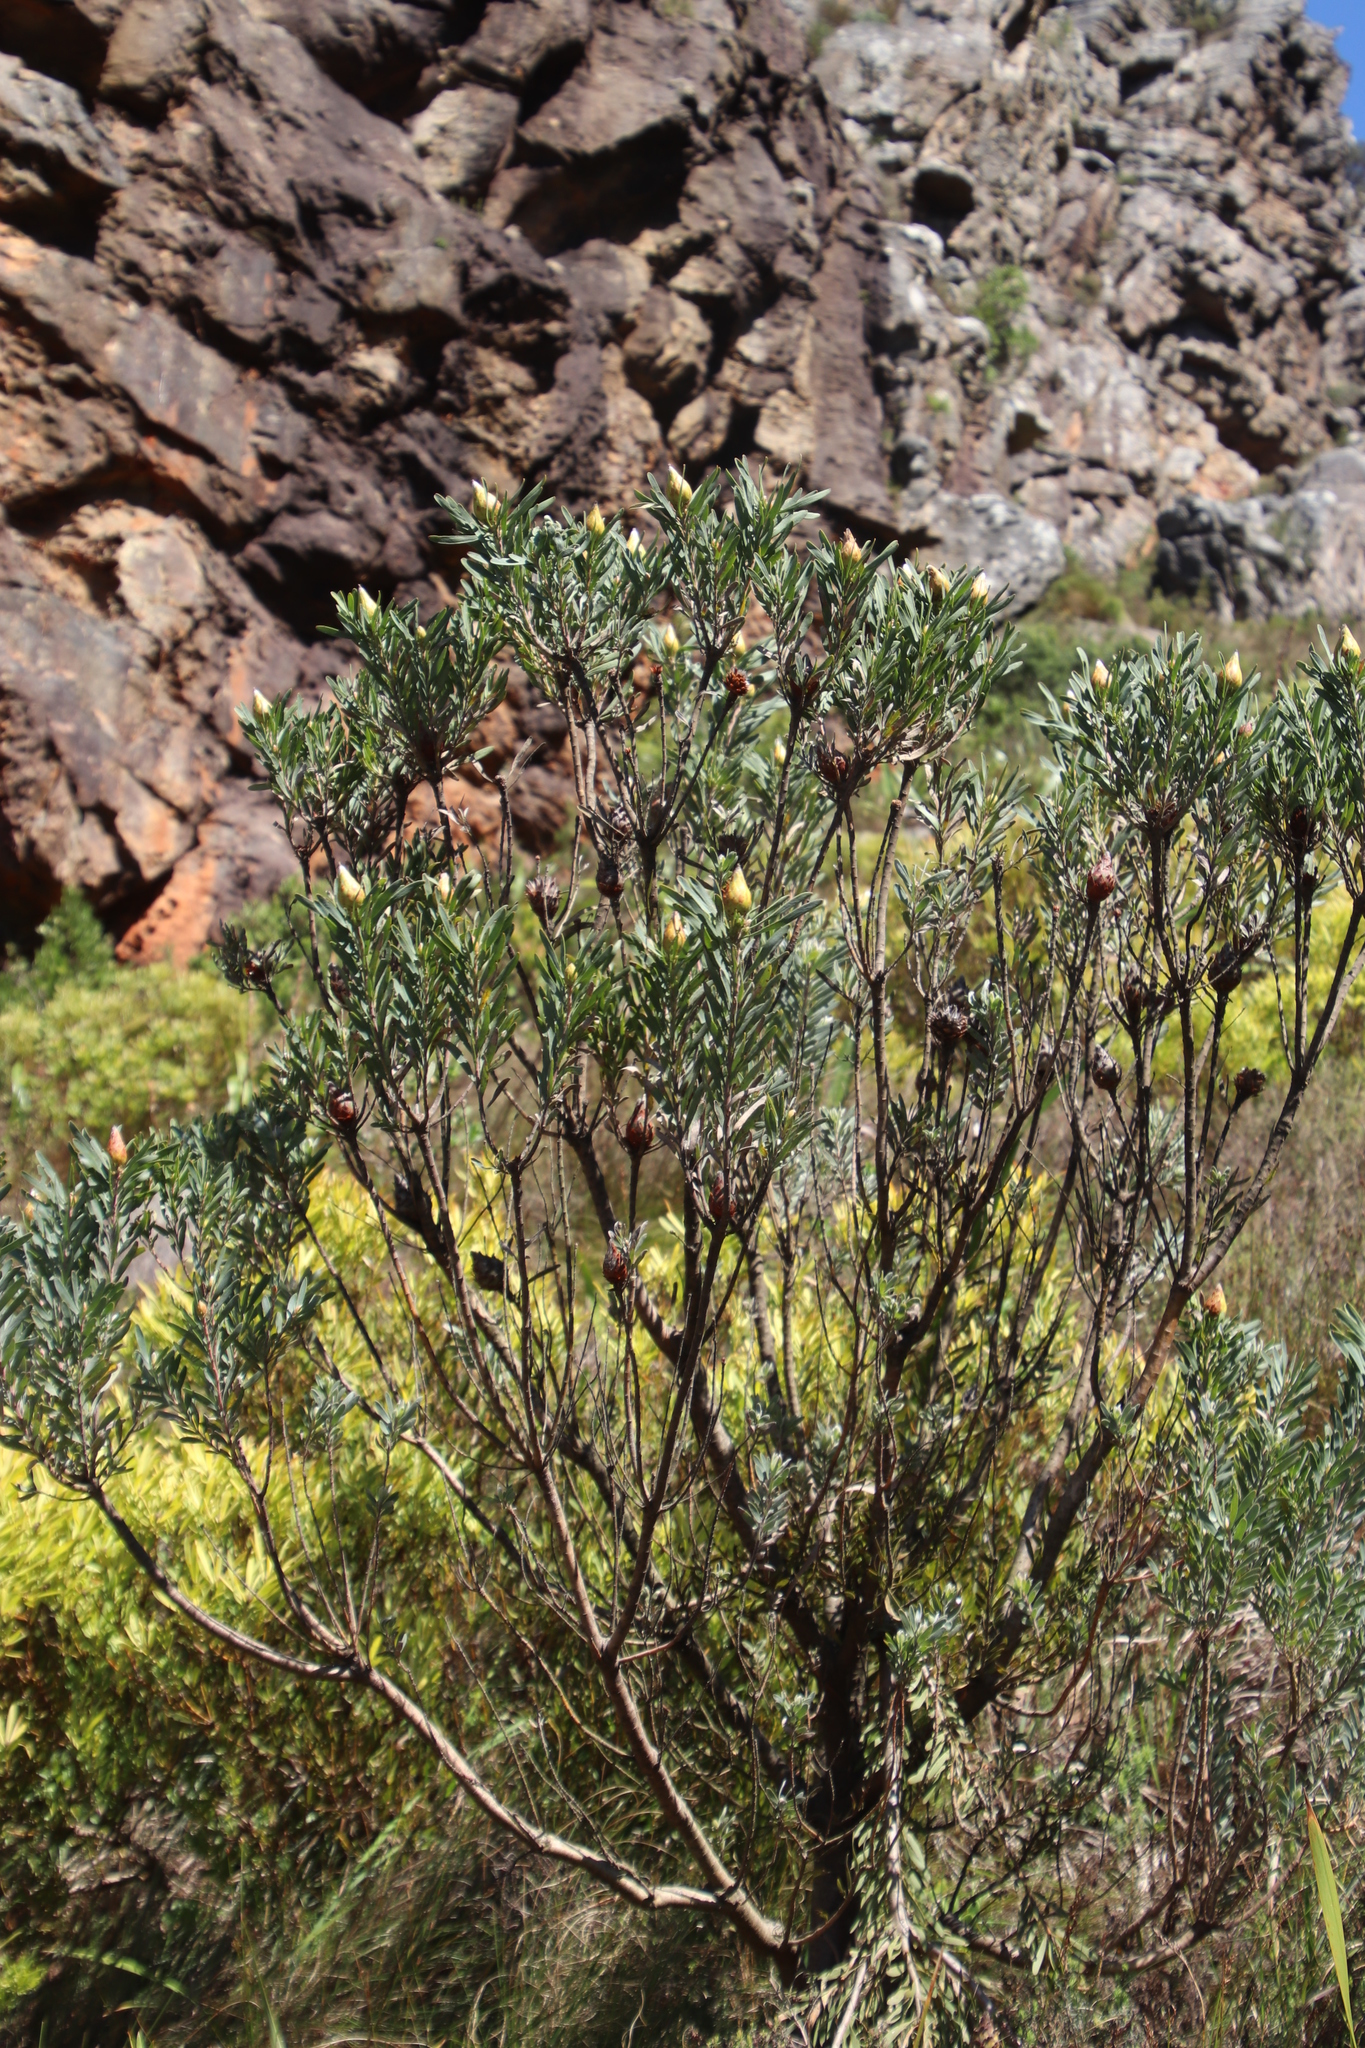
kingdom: Plantae
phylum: Tracheophyta
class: Magnoliopsida
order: Proteales
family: Proteaceae
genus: Leucadendron
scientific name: Leucadendron rubrum
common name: Spinning top
